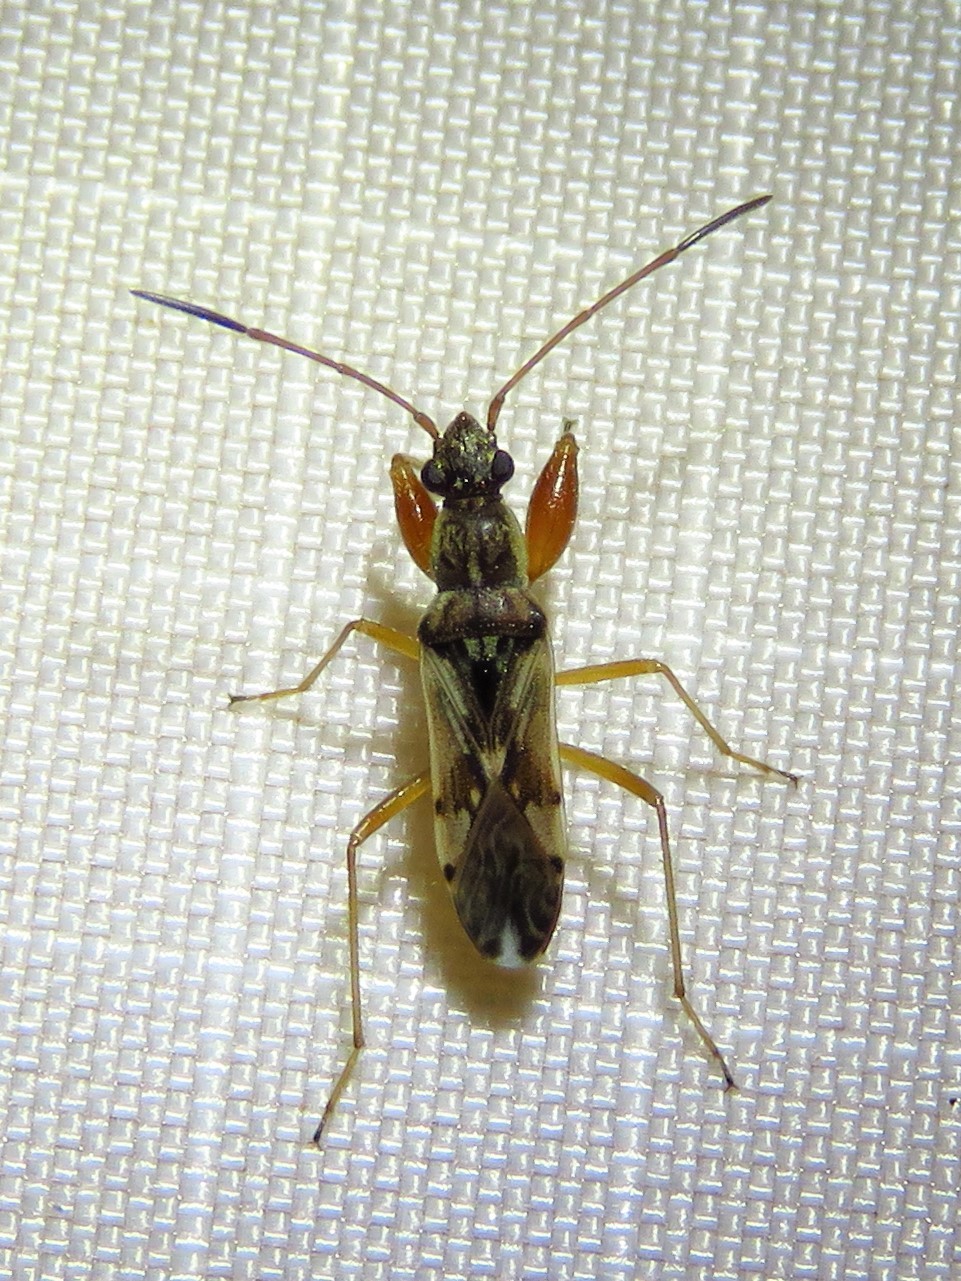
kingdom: Animalia
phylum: Arthropoda
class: Insecta
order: Hemiptera
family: Rhyparochromidae
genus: Neopamera
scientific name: Neopamera bilobata
